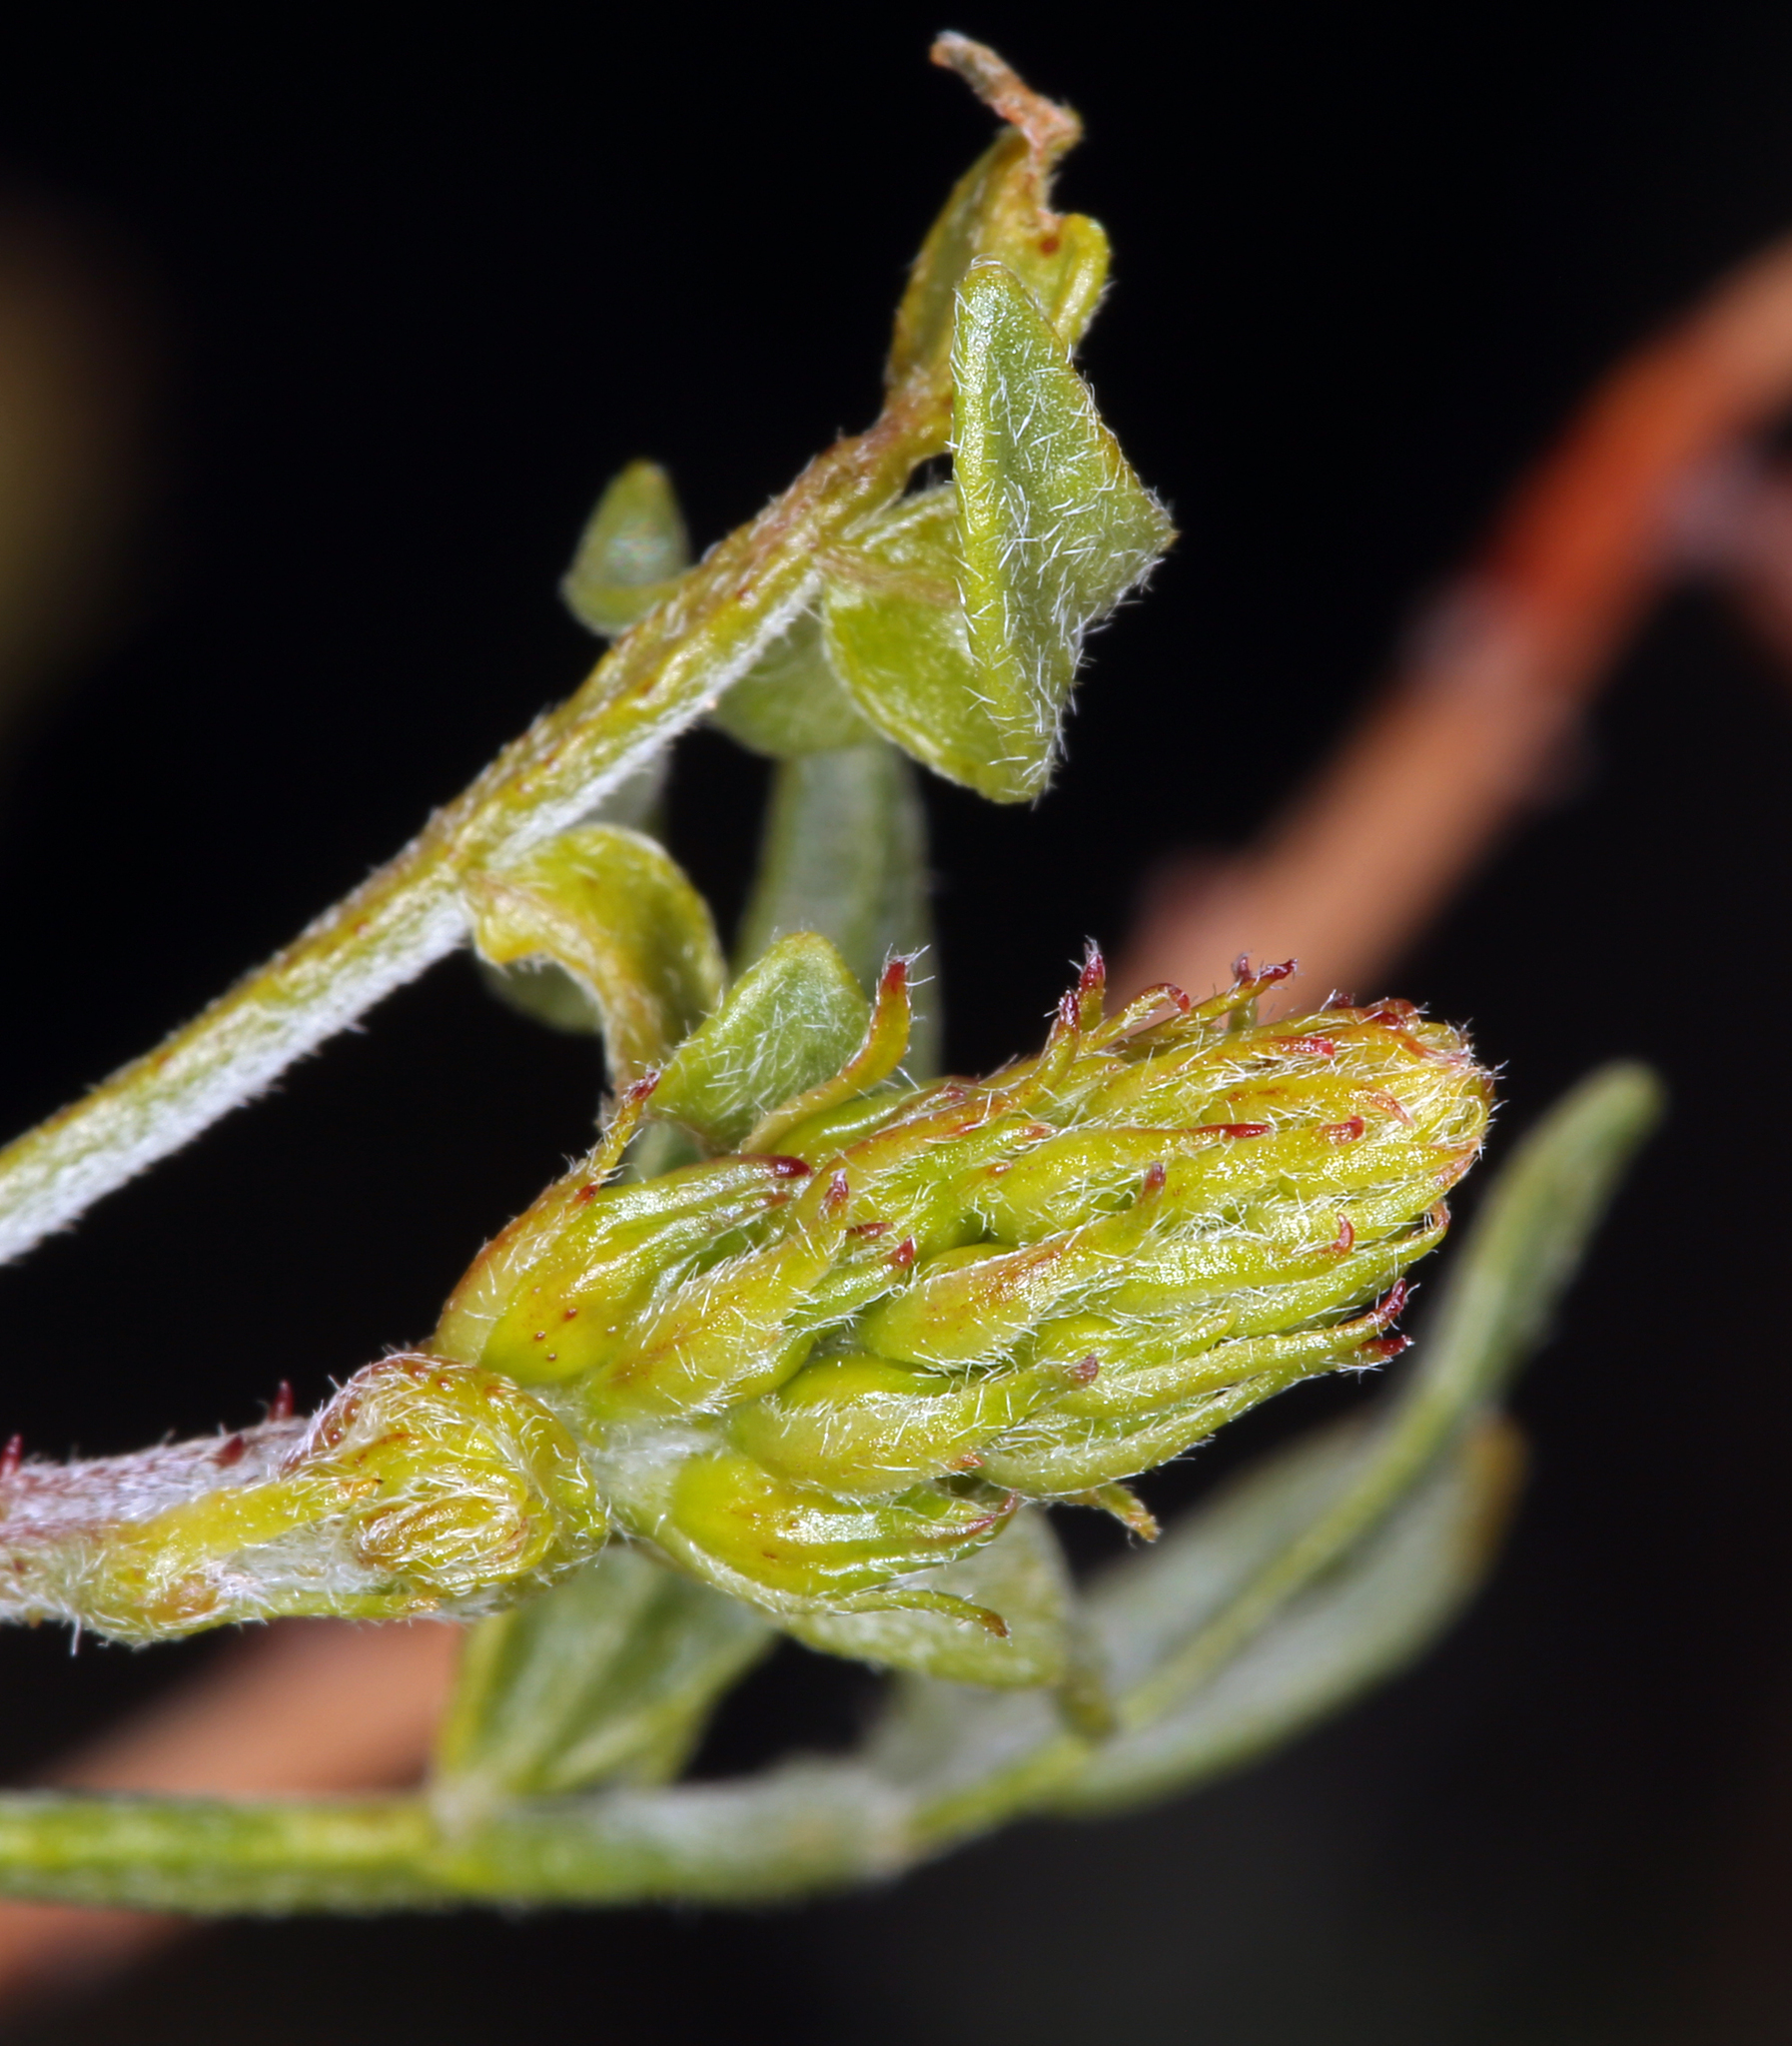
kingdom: Plantae
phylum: Tracheophyta
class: Magnoliopsida
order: Fabales
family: Fabaceae
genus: Psorothamnus
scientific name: Psorothamnus arborescens
